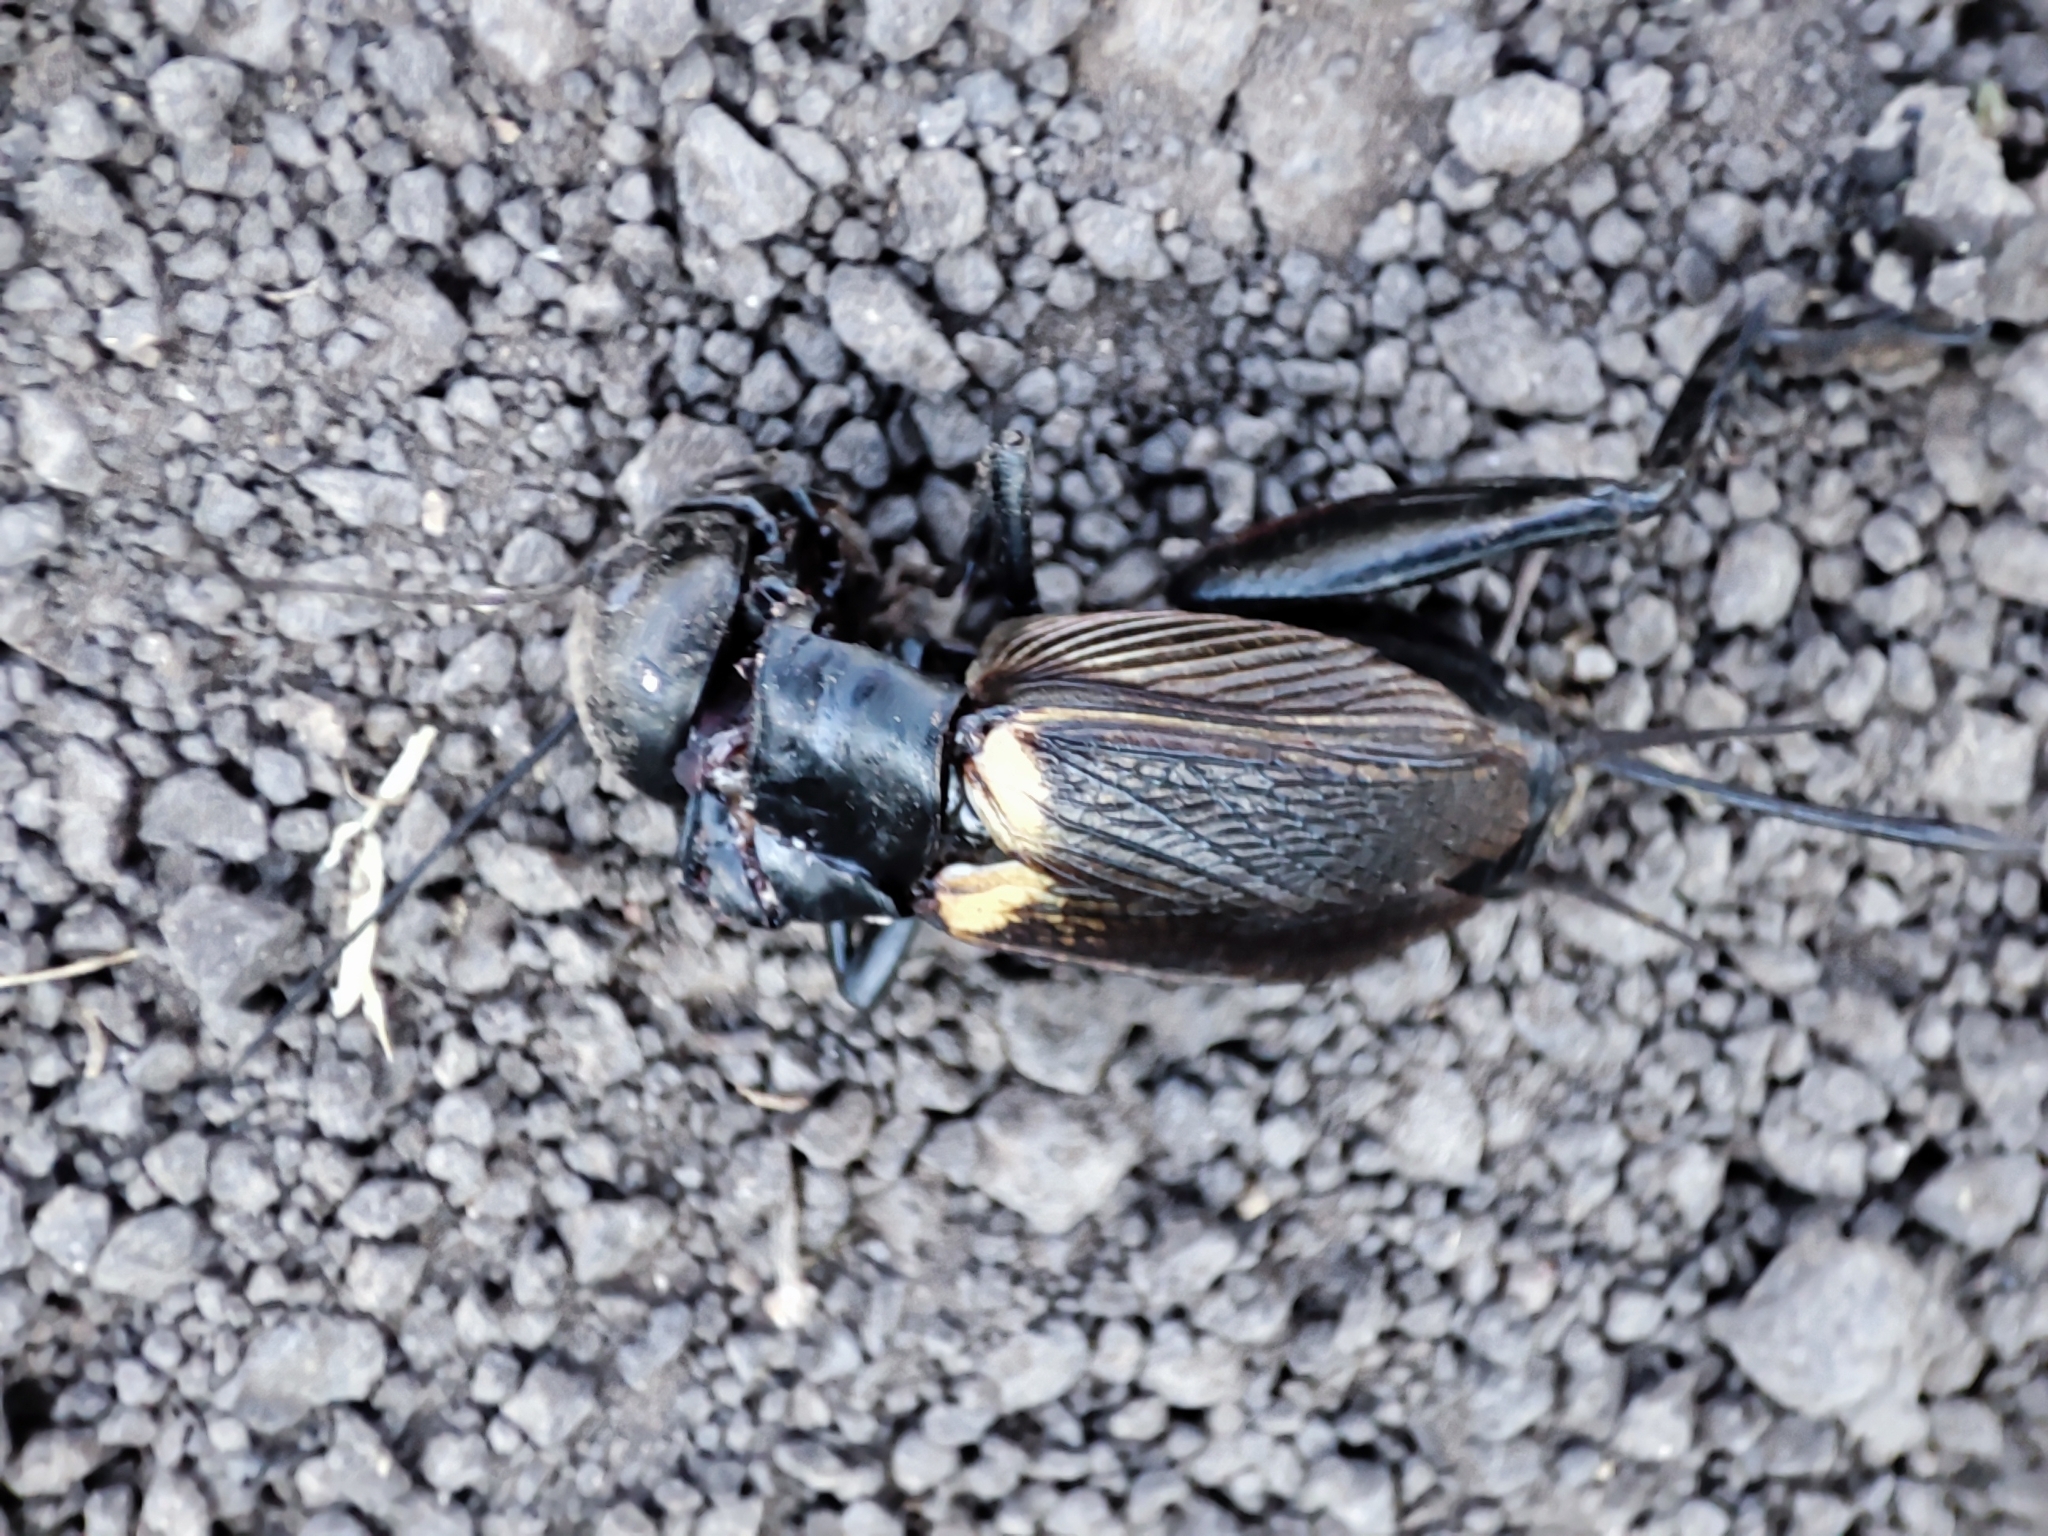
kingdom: Animalia
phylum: Arthropoda
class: Insecta
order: Orthoptera
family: Gryllidae
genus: Gryllus
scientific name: Gryllus bimaculatus
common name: Two-spotted cricket
